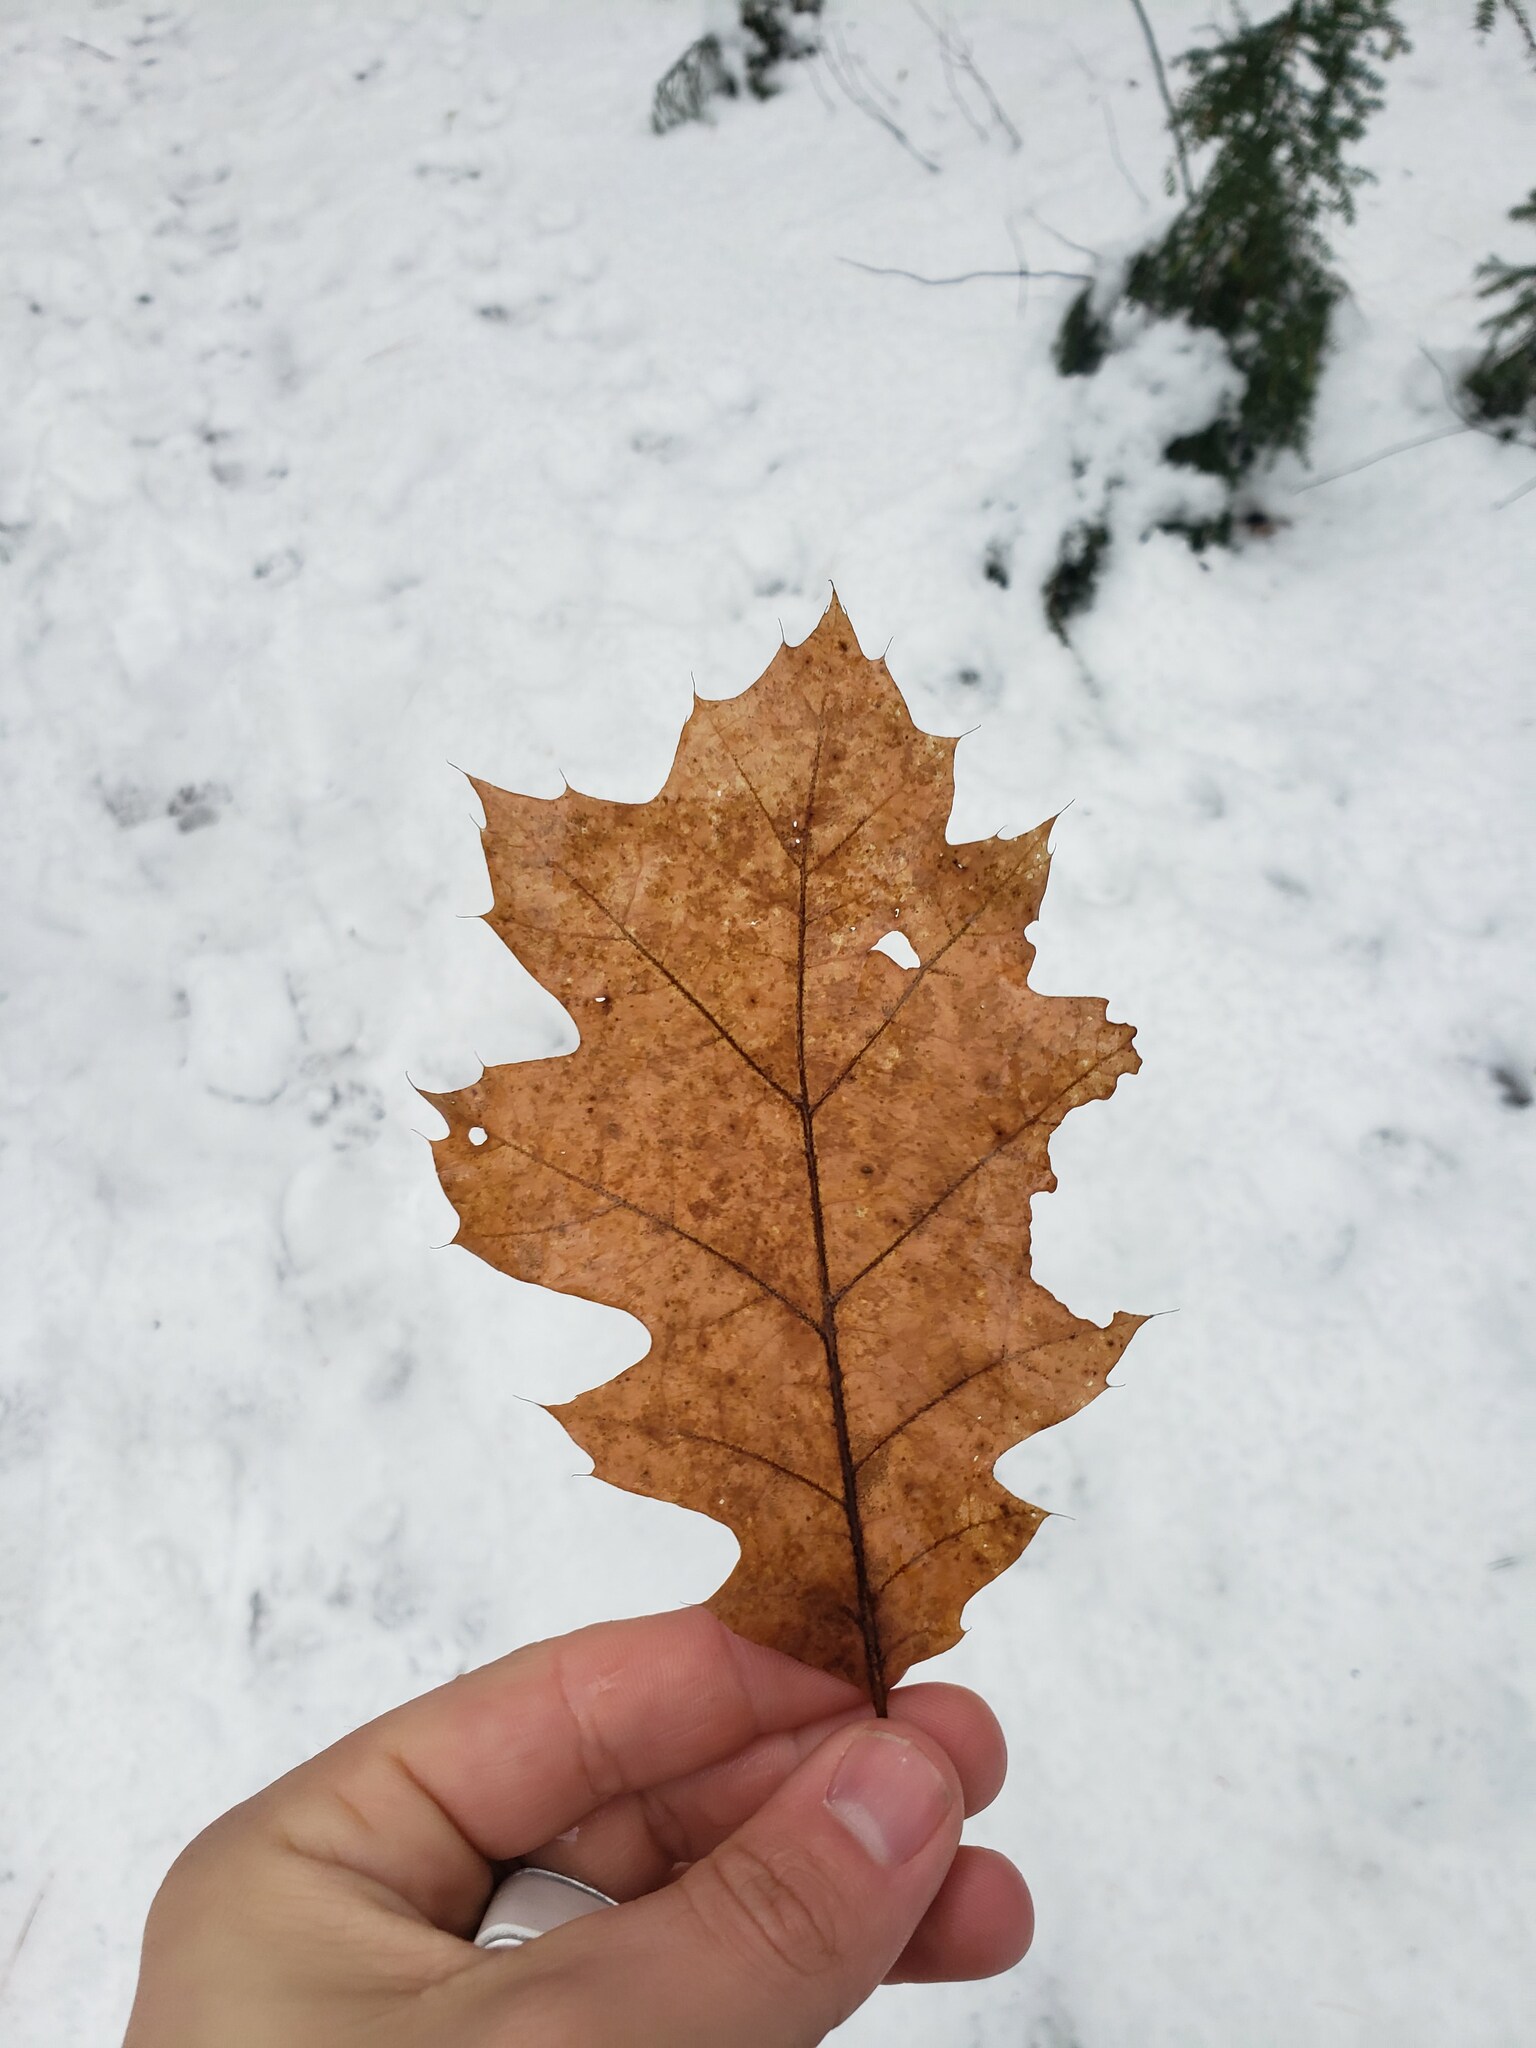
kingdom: Plantae
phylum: Tracheophyta
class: Magnoliopsida
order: Fagales
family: Fagaceae
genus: Quercus
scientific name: Quercus rubra
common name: Red oak
